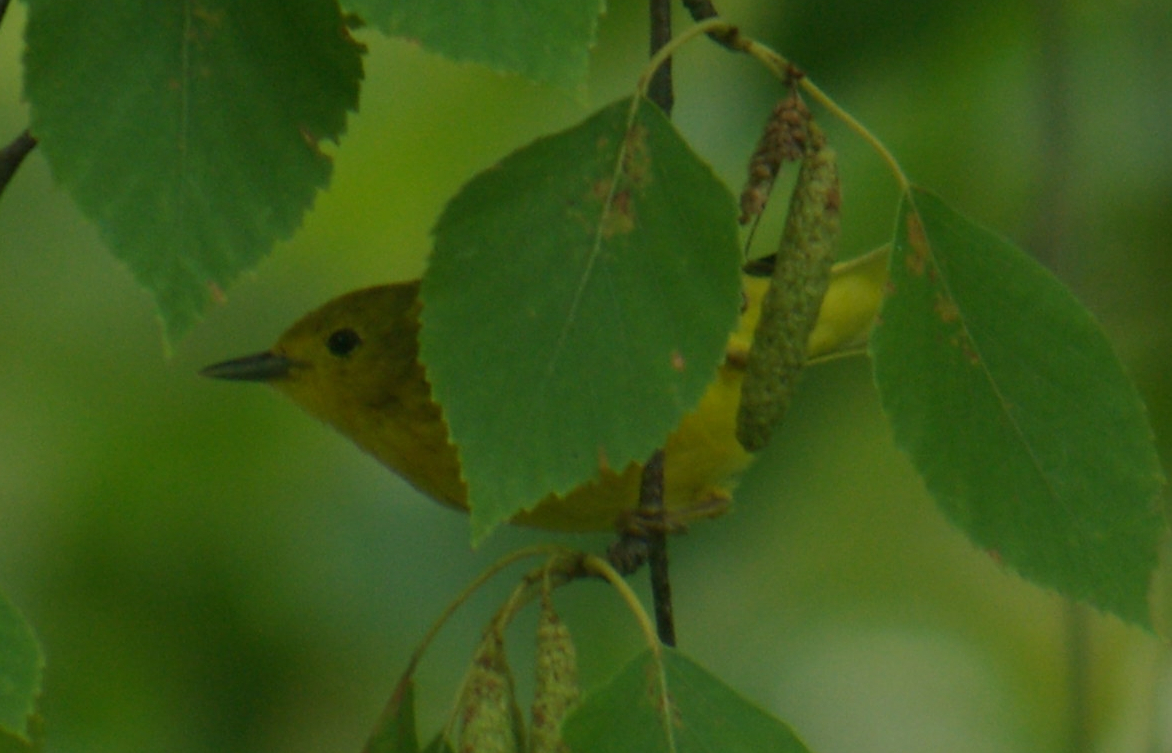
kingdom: Animalia
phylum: Chordata
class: Aves
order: Passeriformes
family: Parulidae
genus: Setophaga
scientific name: Setophaga petechia
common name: Yellow warbler
